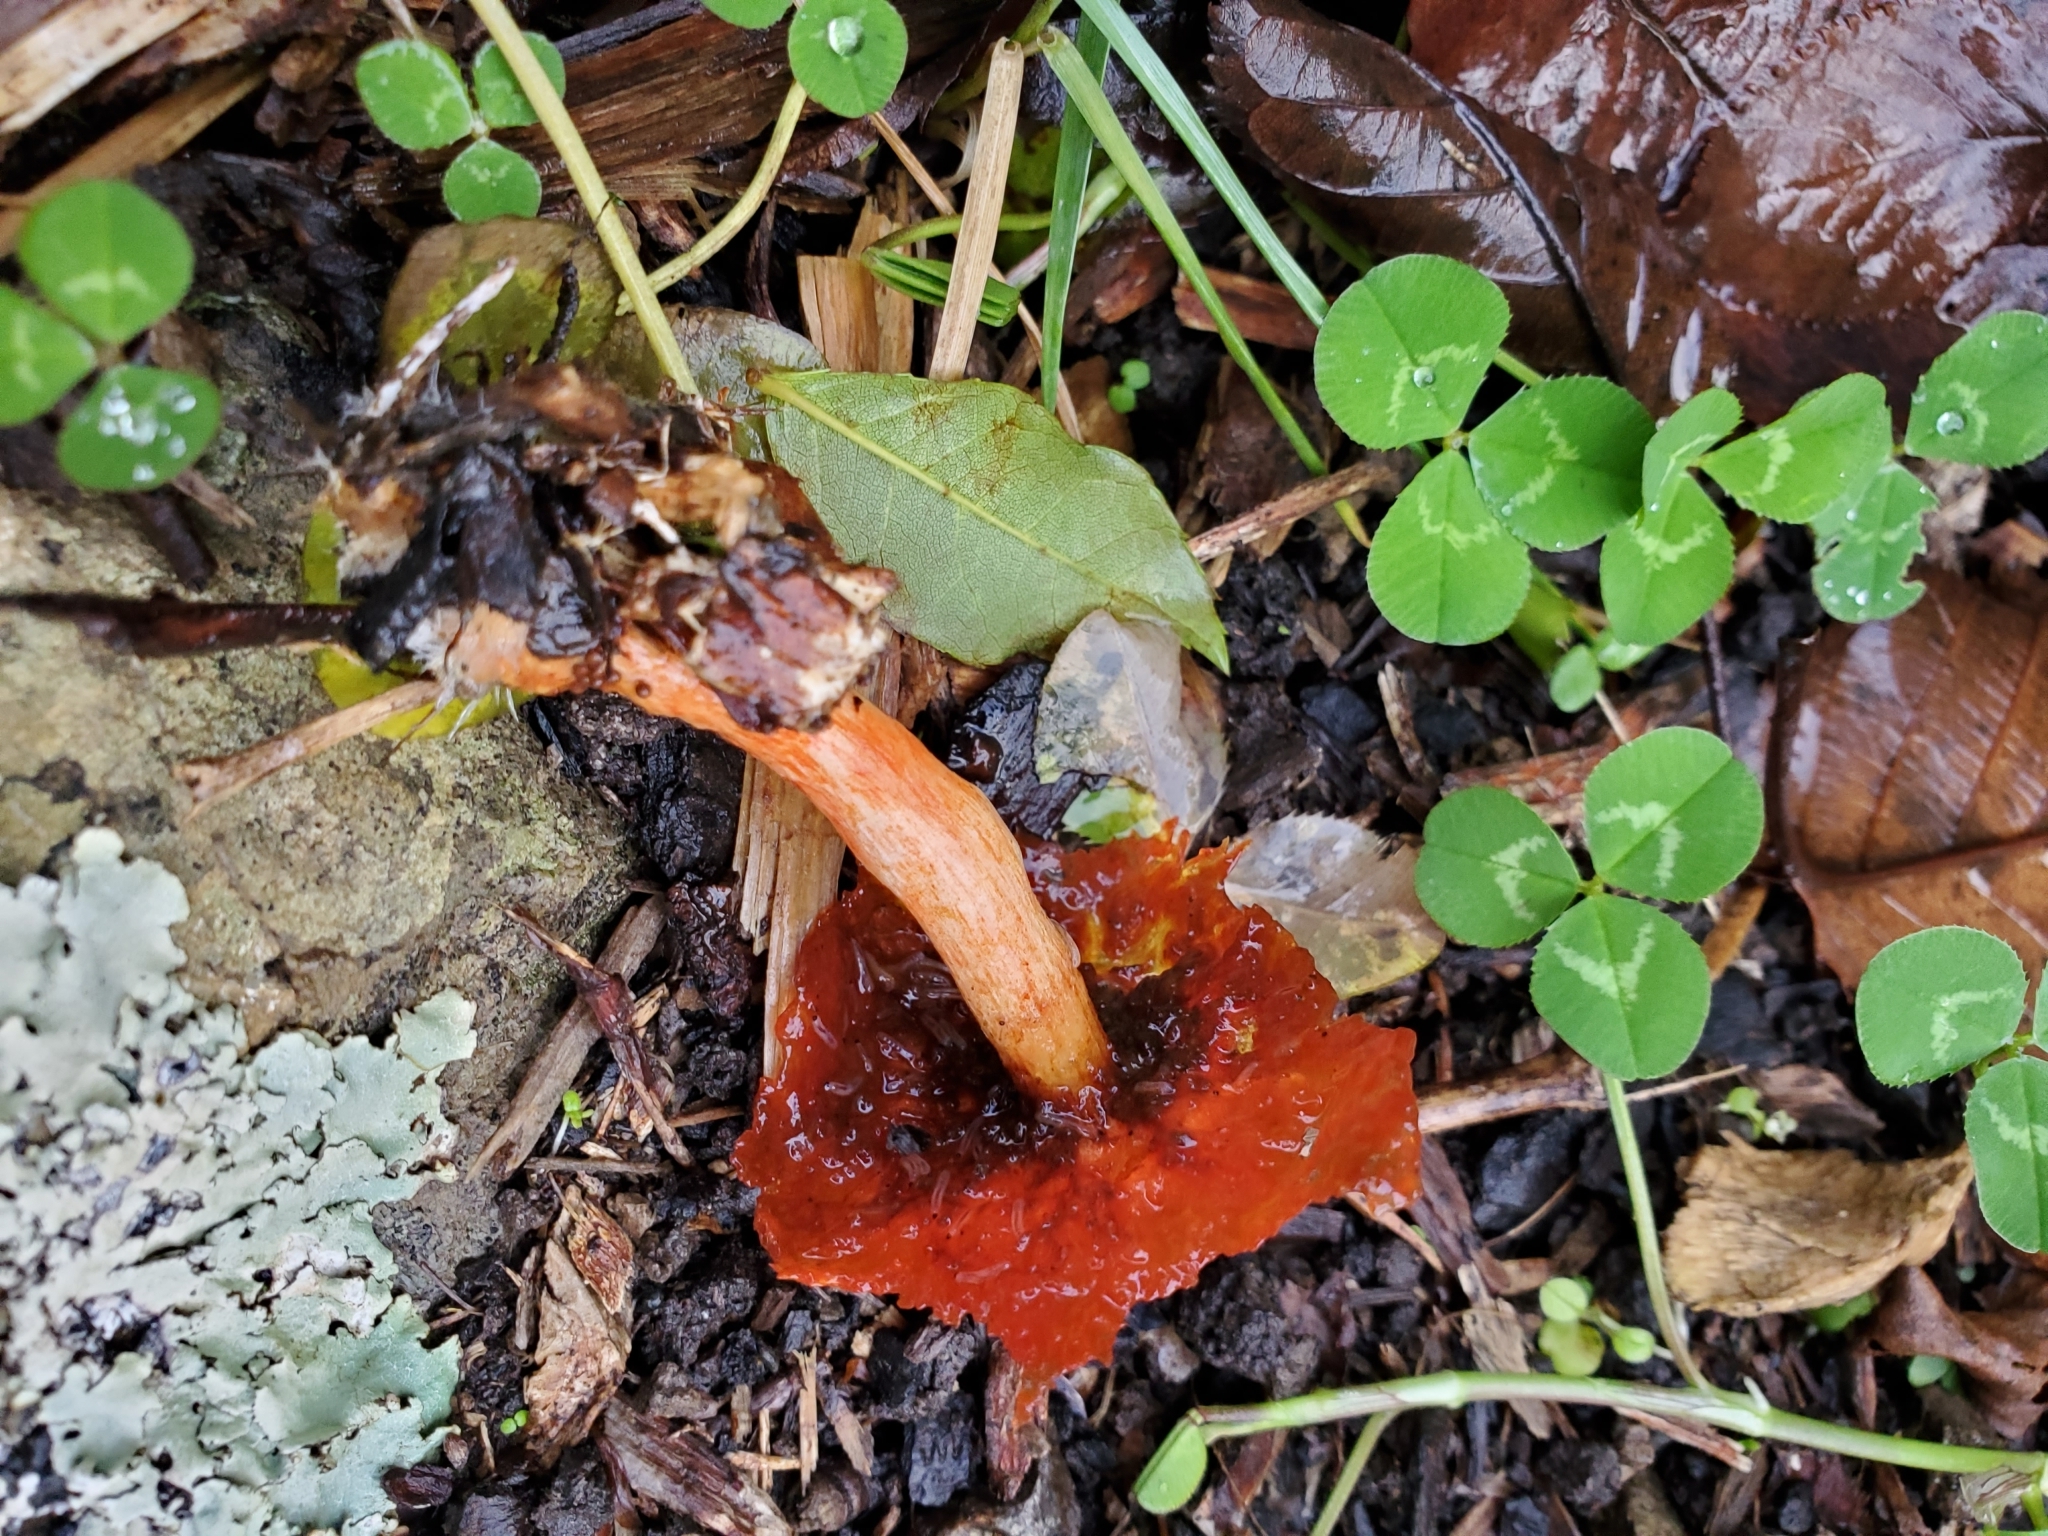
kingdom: Fungi
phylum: Basidiomycota
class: Agaricomycetes
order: Agaricales
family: Strophariaceae
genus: Leratiomyces
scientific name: Leratiomyces ceres
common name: Redlead roundhead
